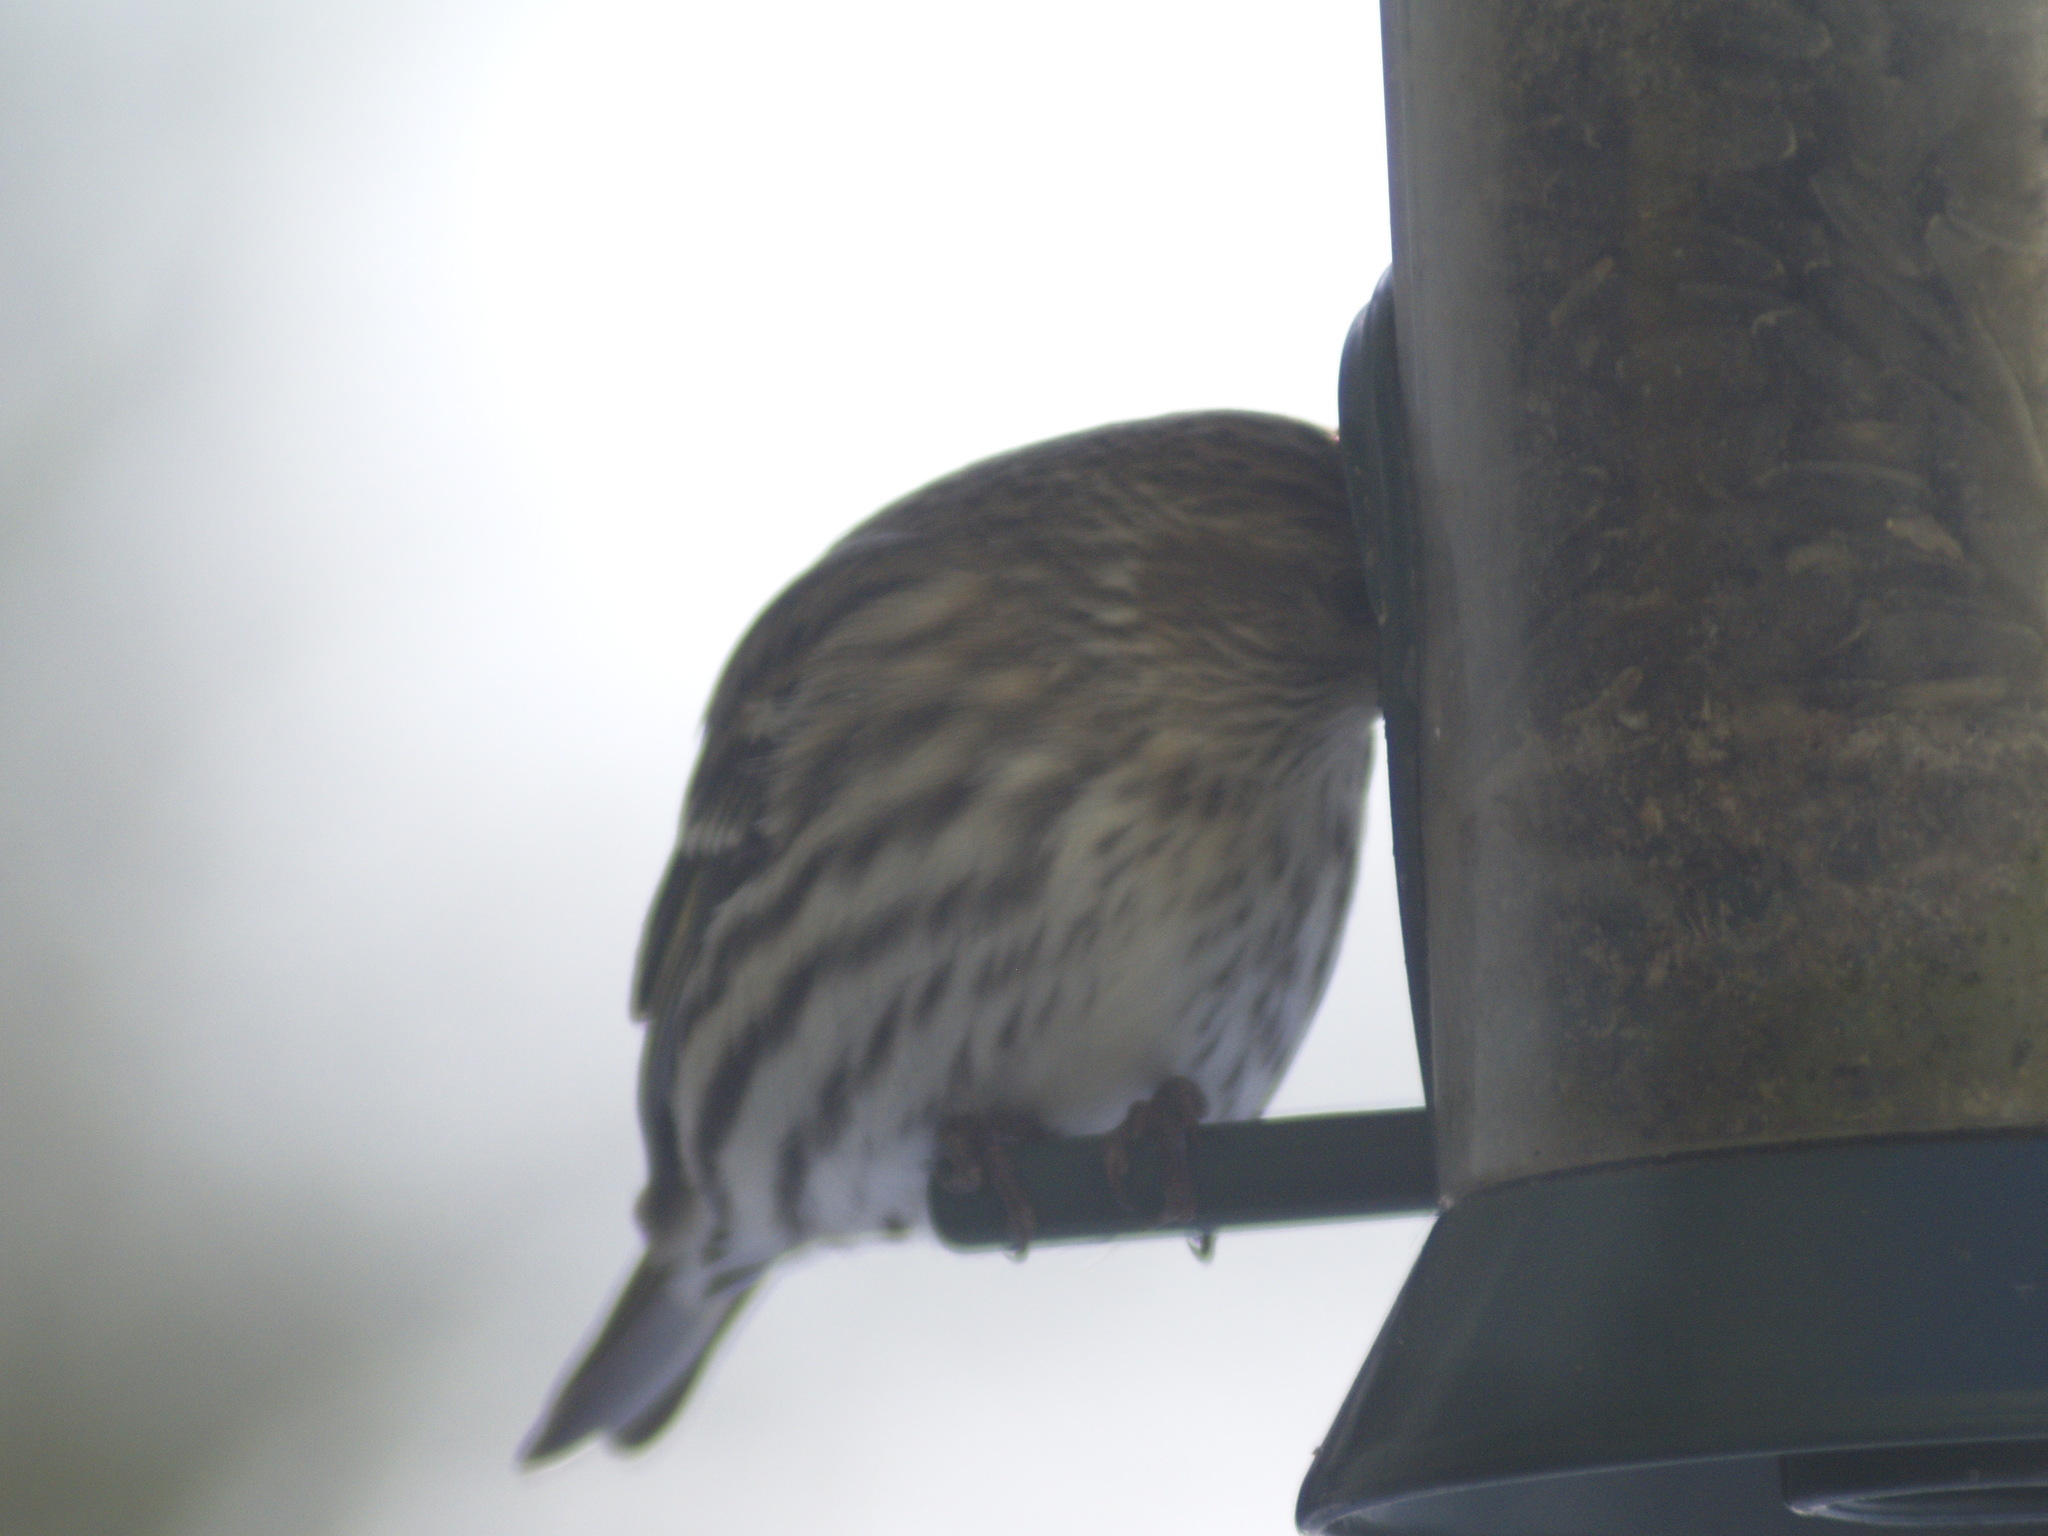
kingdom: Animalia
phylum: Chordata
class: Aves
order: Passeriformes
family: Fringillidae
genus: Spinus
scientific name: Spinus pinus
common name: Pine siskin
